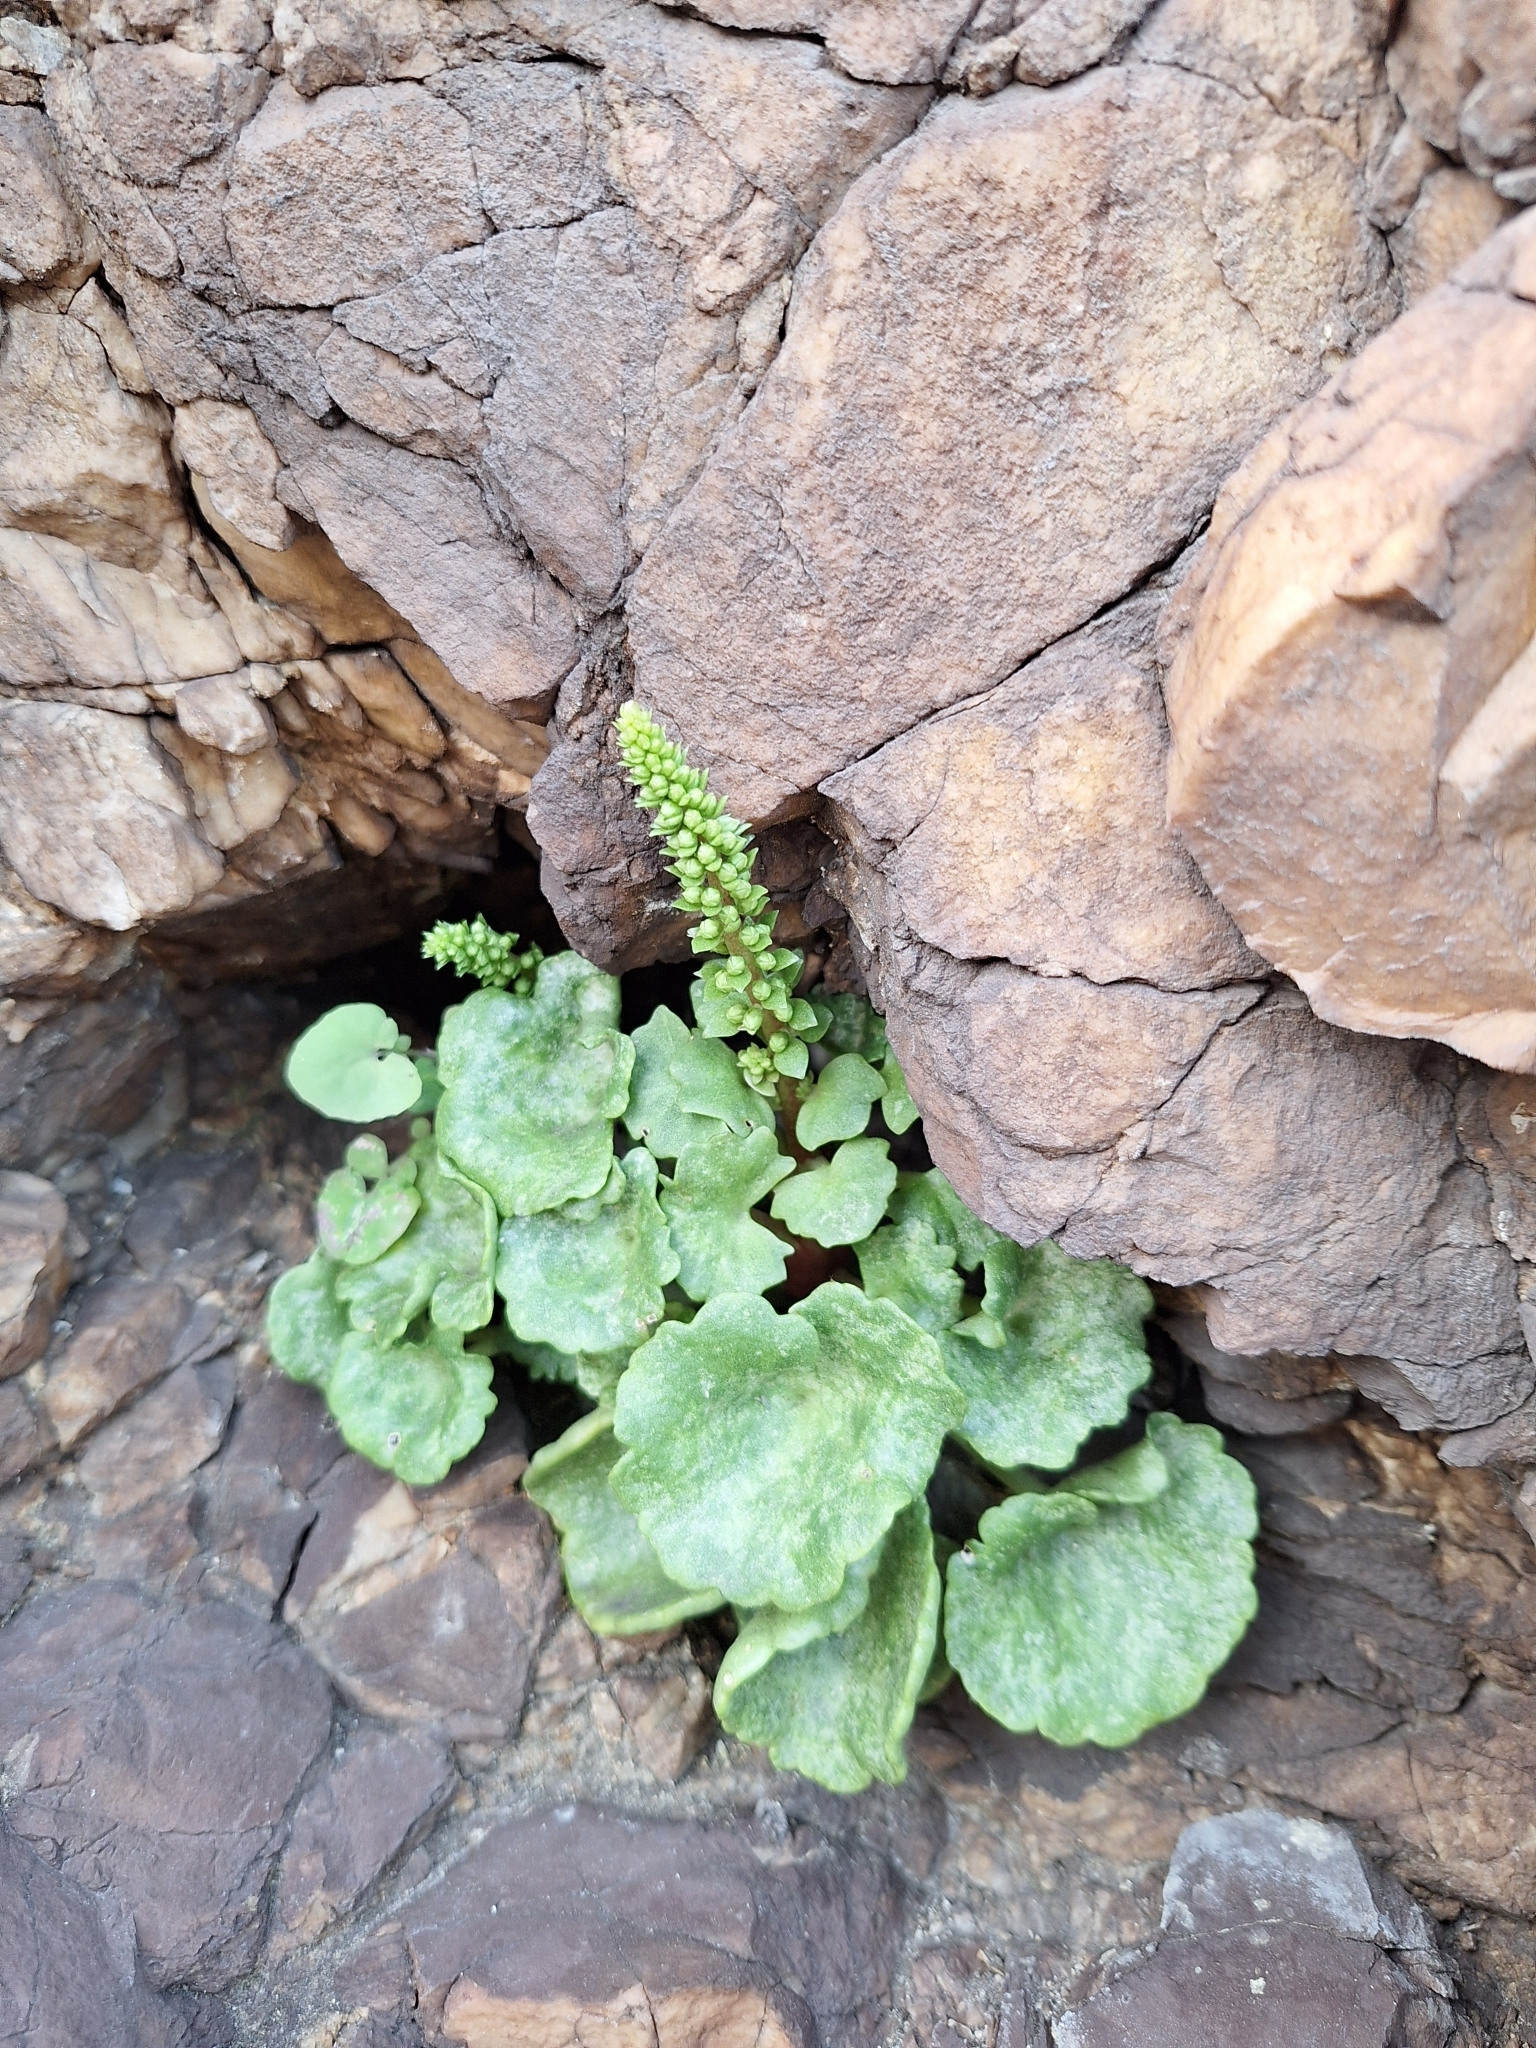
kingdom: Plantae
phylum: Tracheophyta
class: Magnoliopsida
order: Saxifragales
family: Crassulaceae
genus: Umbilicus
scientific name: Umbilicus rupestris
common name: Navelwort
